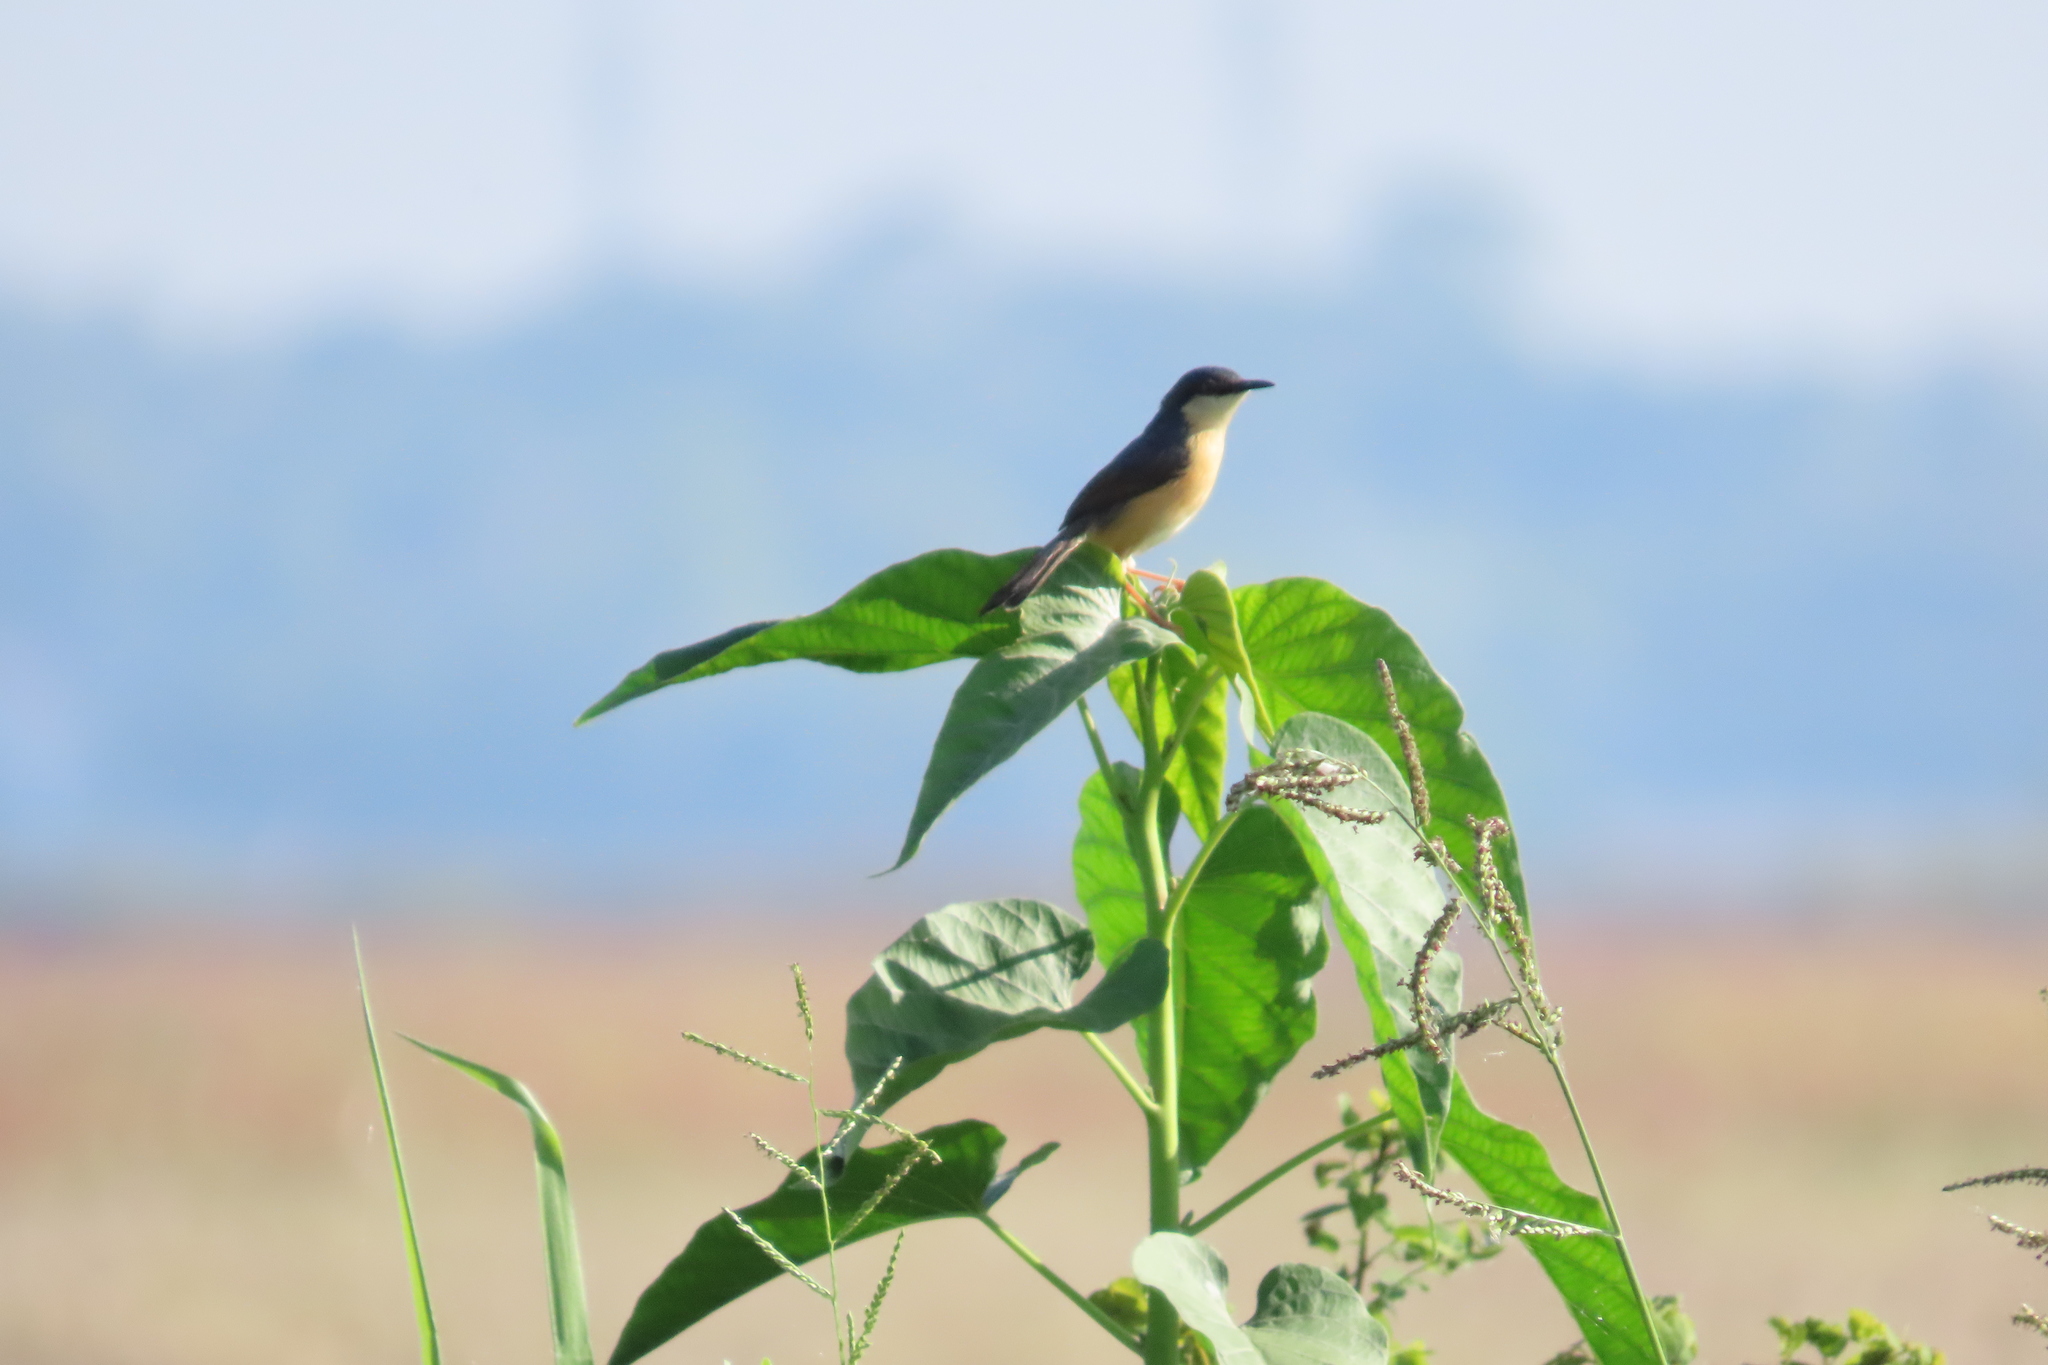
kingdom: Plantae
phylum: Tracheophyta
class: Magnoliopsida
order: Solanales
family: Convolvulaceae
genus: Ipomoea
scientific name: Ipomoea carnea
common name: Morning-glory
